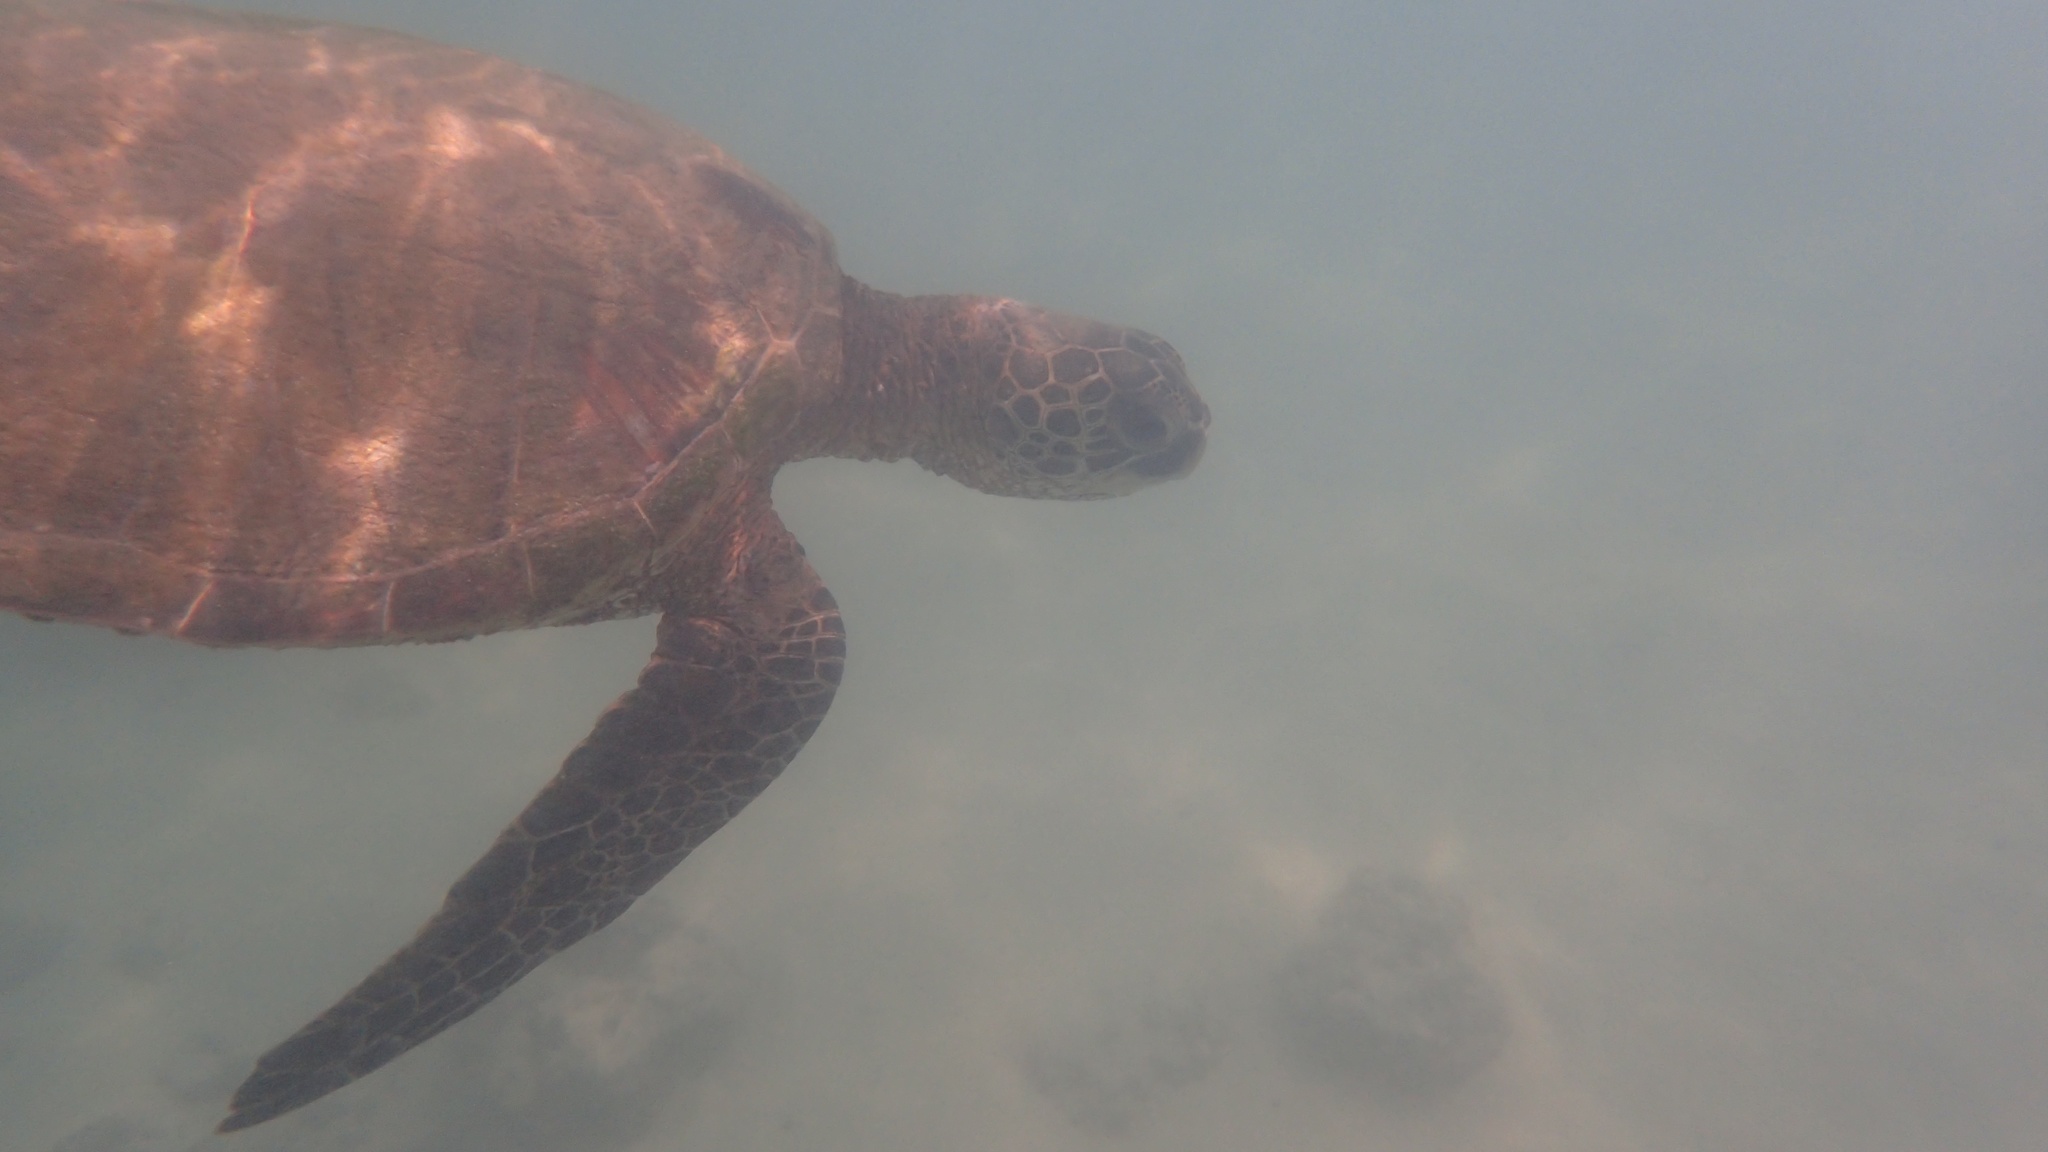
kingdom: Animalia
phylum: Chordata
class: Testudines
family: Cheloniidae
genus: Chelonia
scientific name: Chelonia mydas
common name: Green turtle
